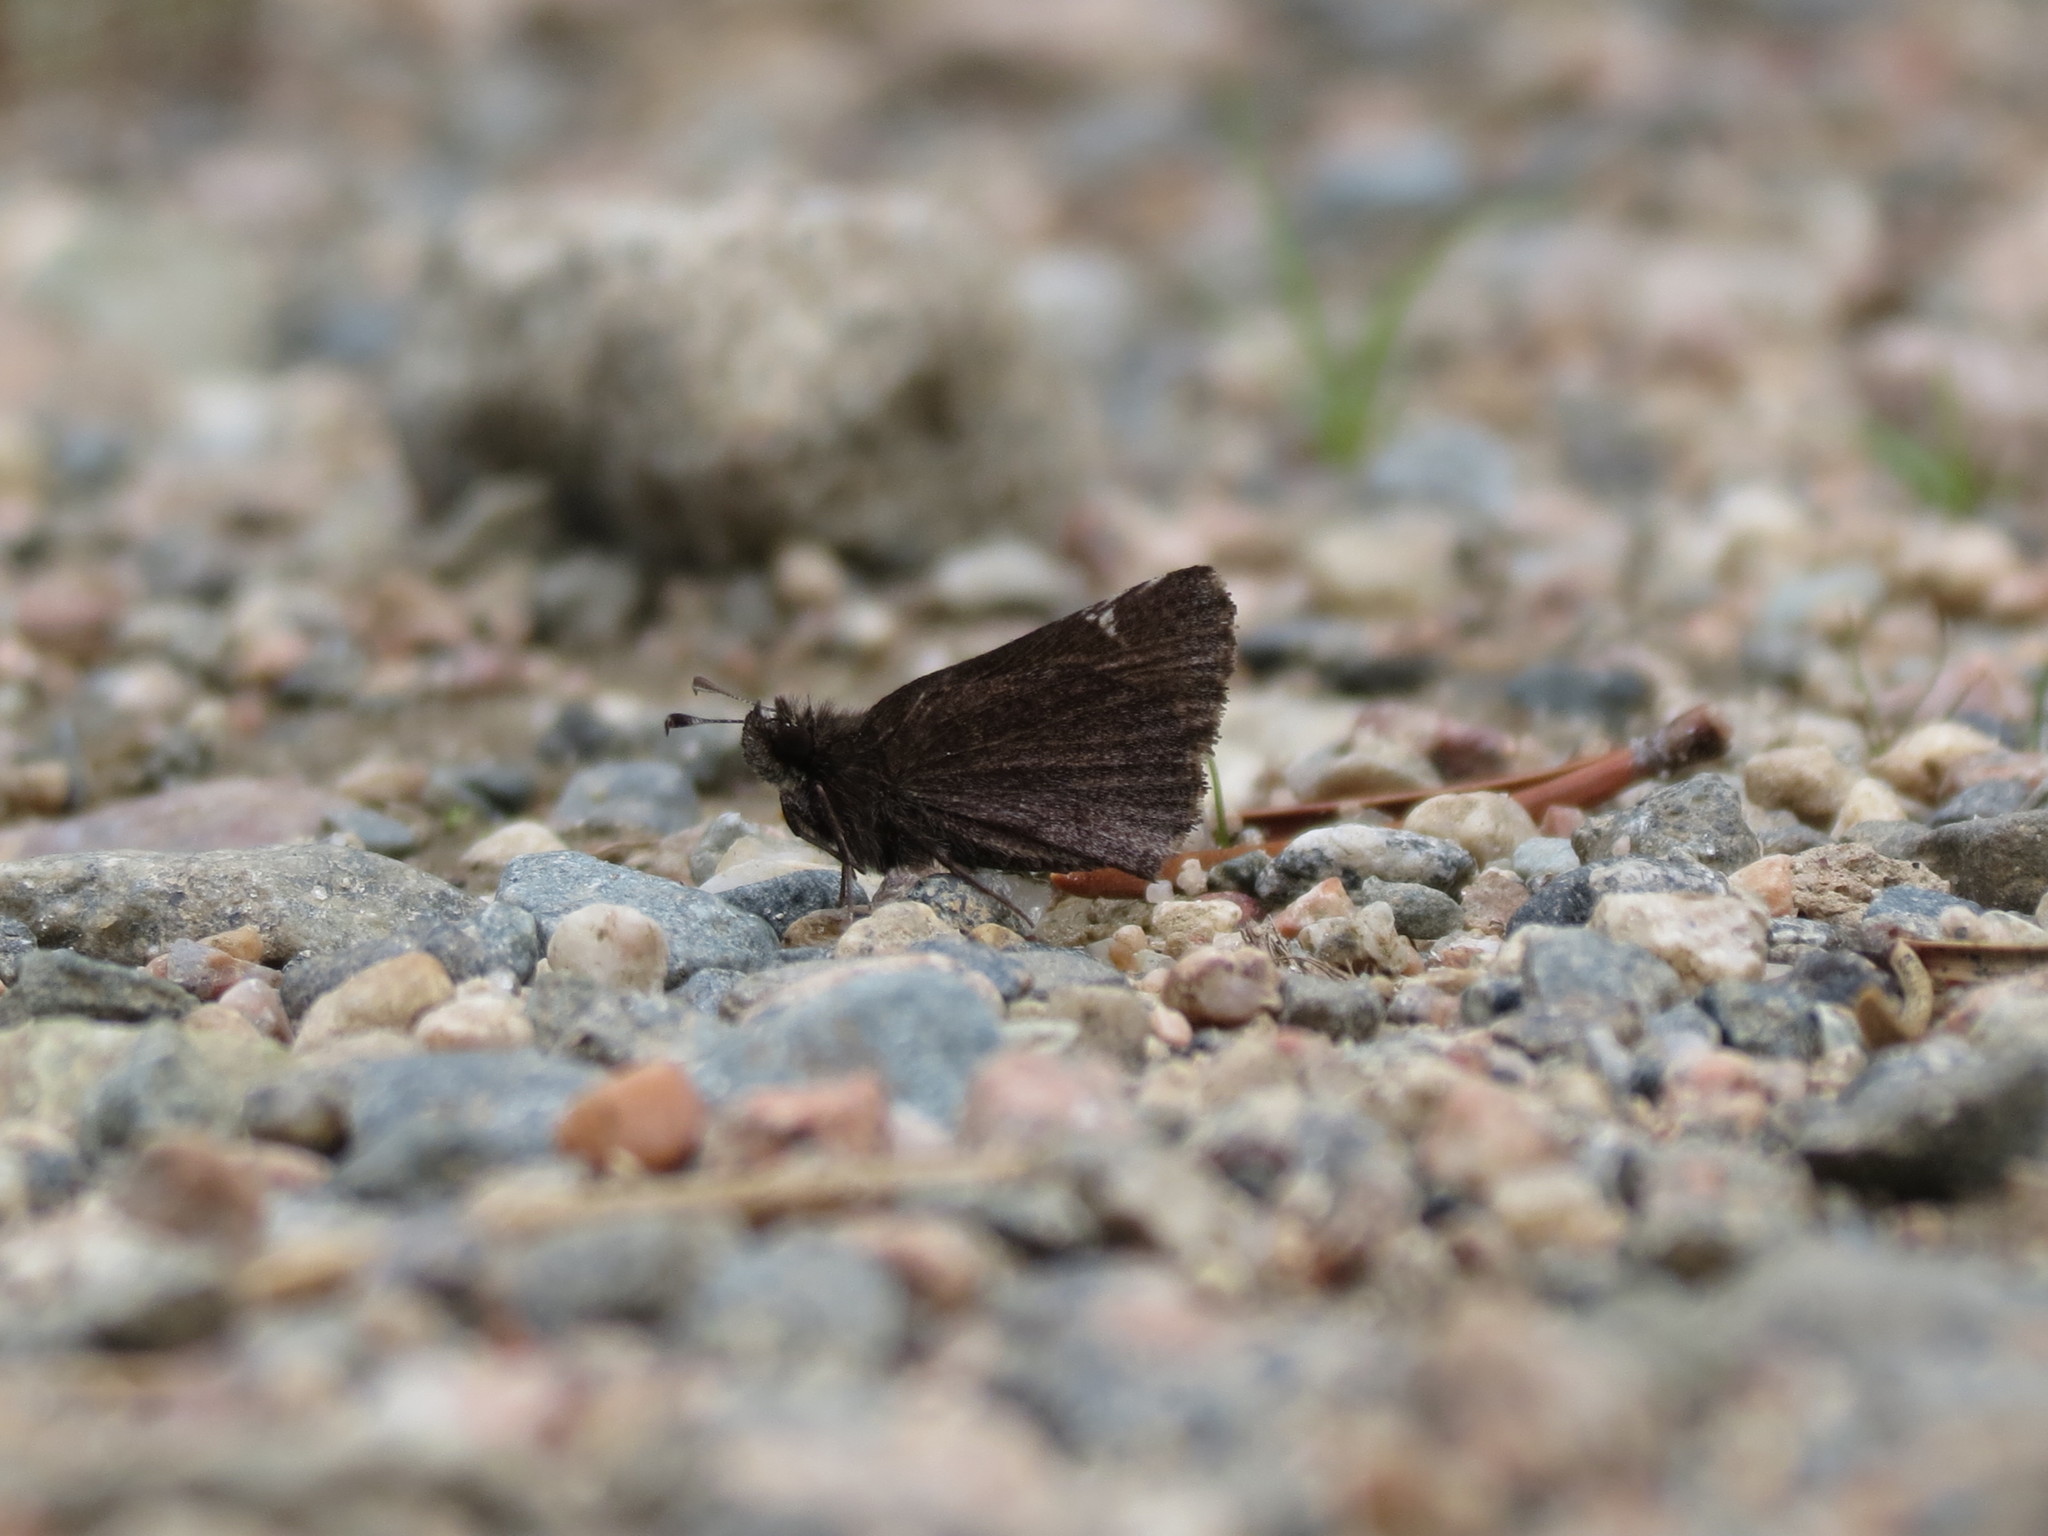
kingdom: Animalia
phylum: Arthropoda
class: Insecta
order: Lepidoptera
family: Hesperiidae
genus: Mastor
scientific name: Mastor vialis
